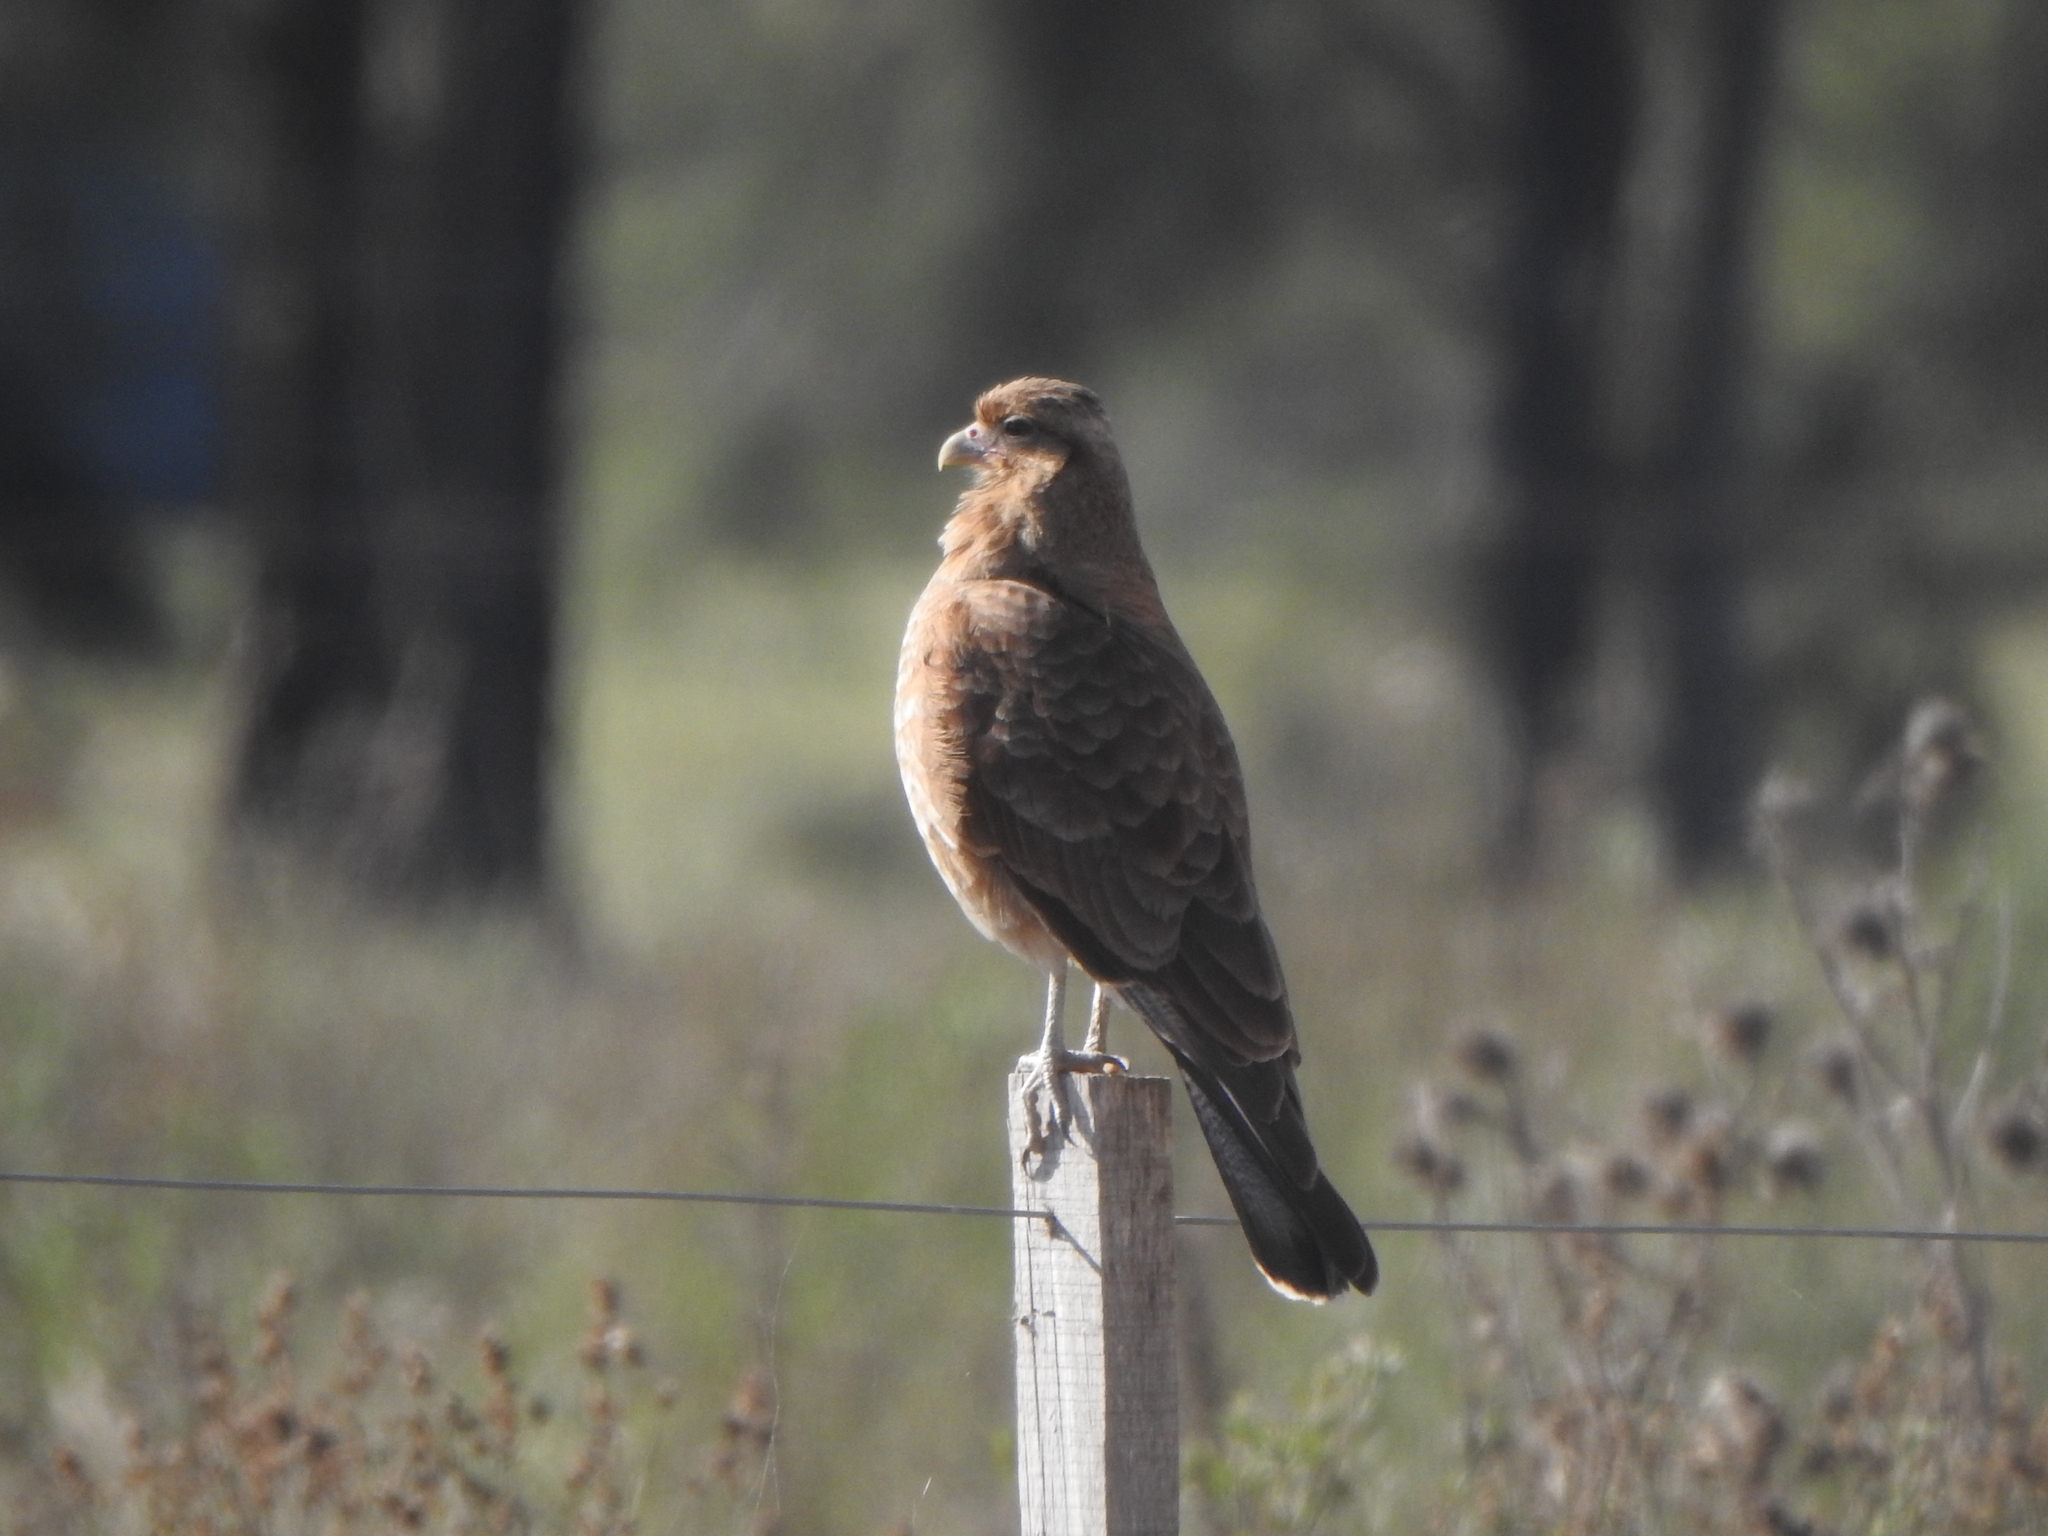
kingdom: Animalia
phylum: Chordata
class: Aves
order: Falconiformes
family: Falconidae
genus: Daptrius
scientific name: Daptrius
